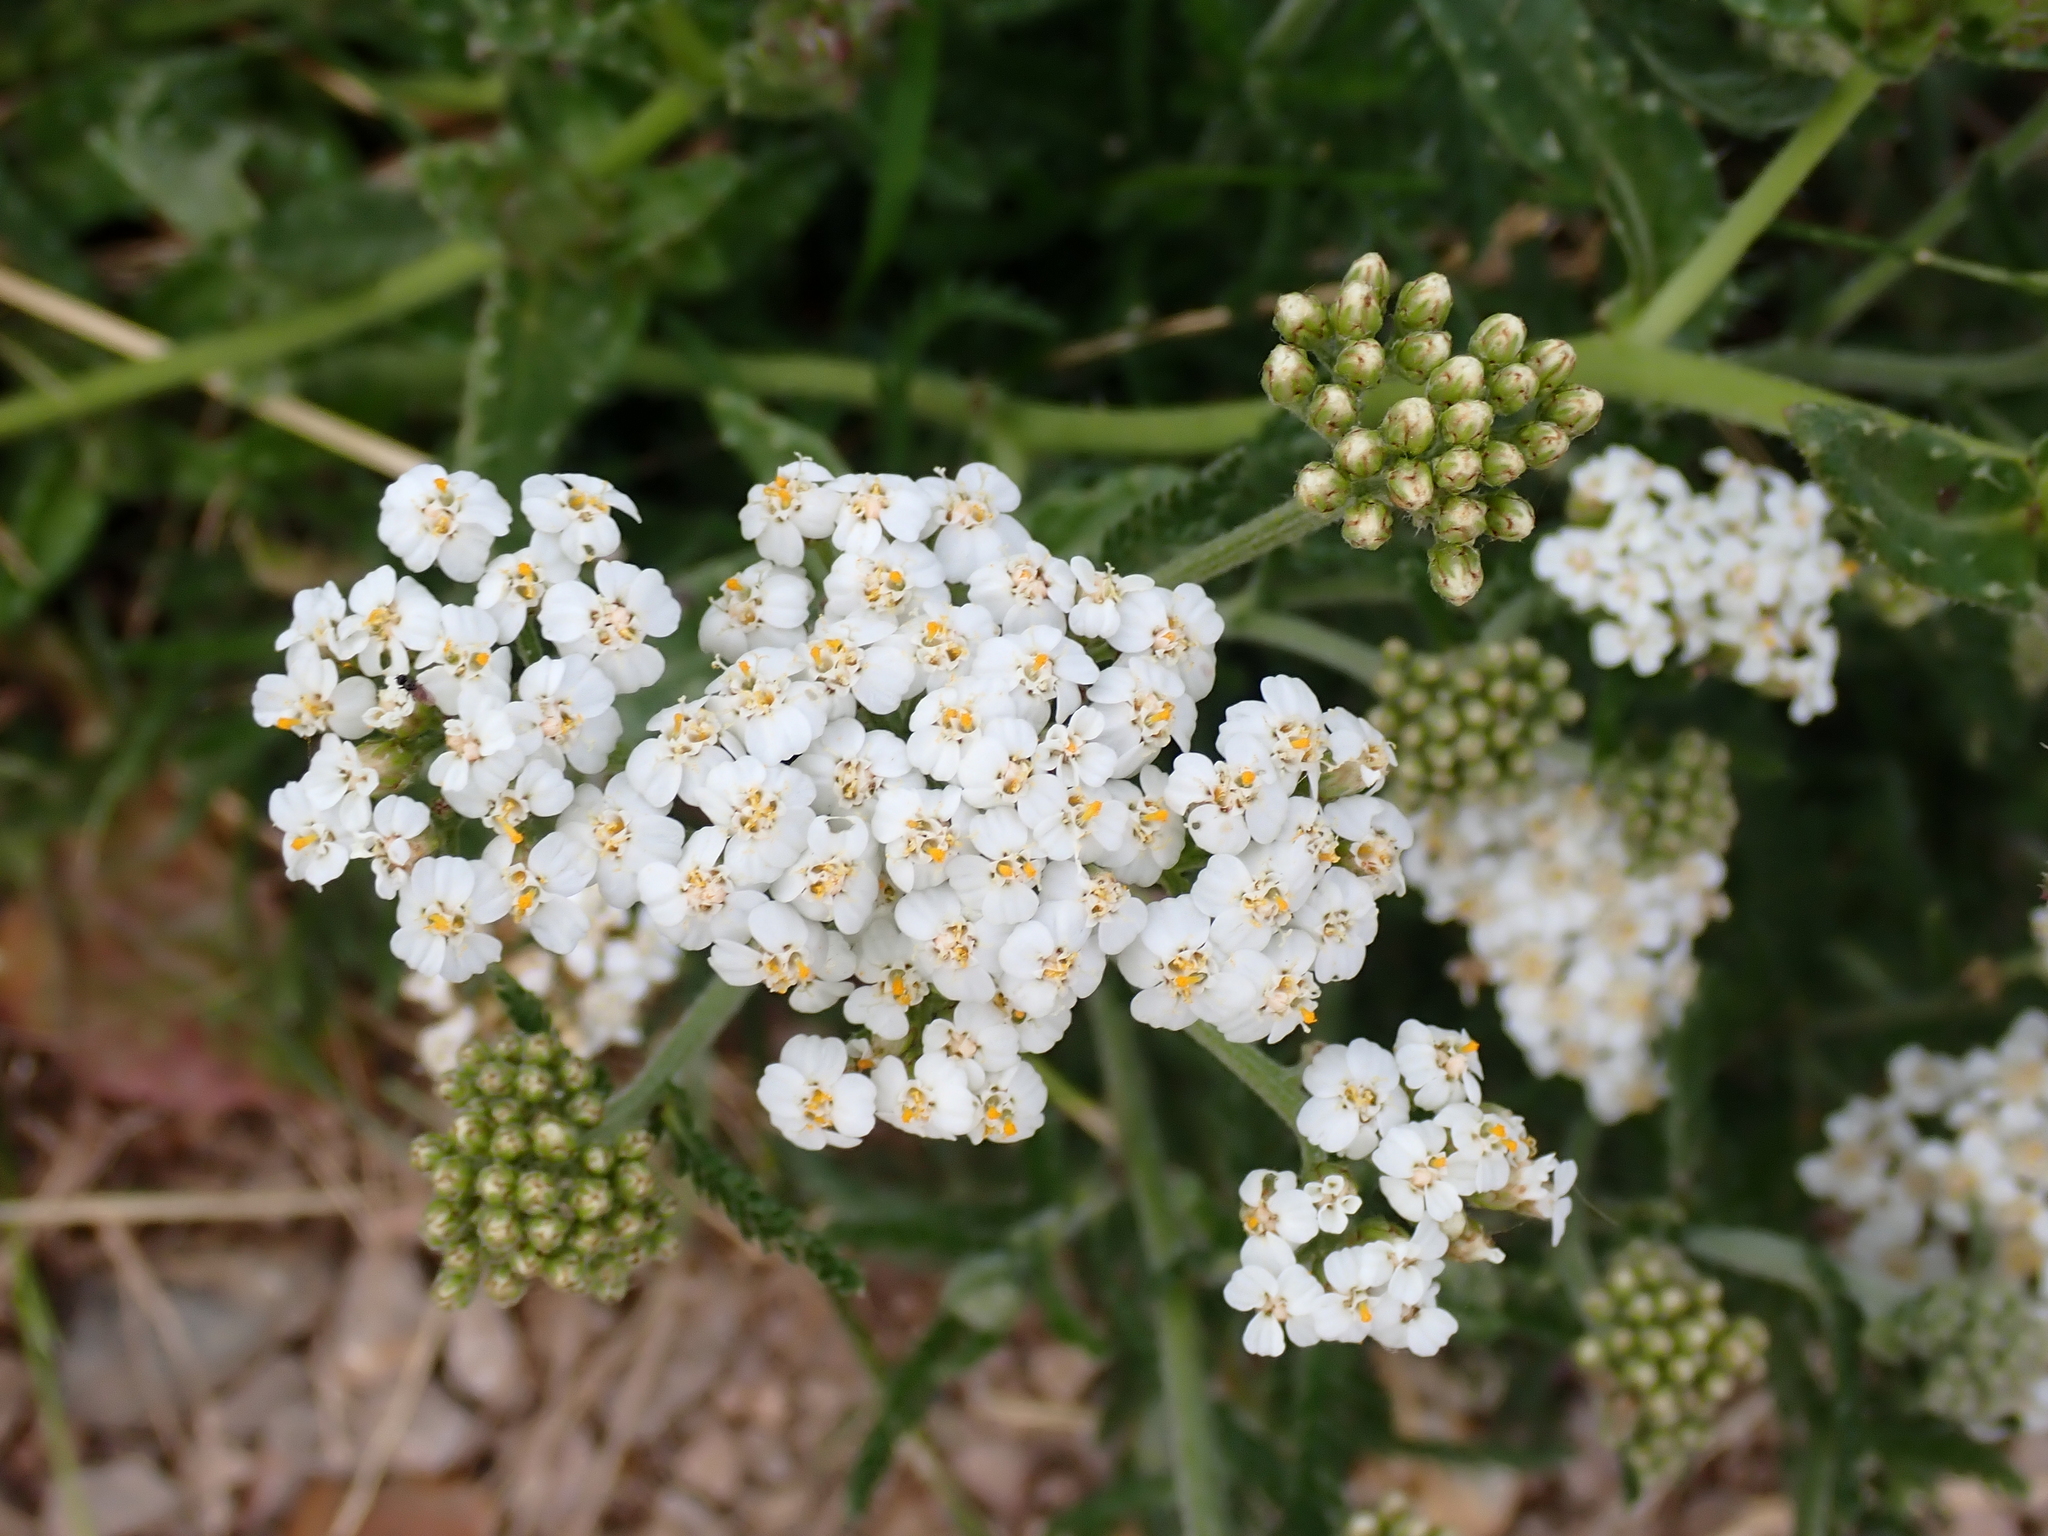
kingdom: Plantae
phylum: Tracheophyta
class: Magnoliopsida
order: Asterales
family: Asteraceae
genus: Achillea
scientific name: Achillea millefolium
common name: Yarrow
